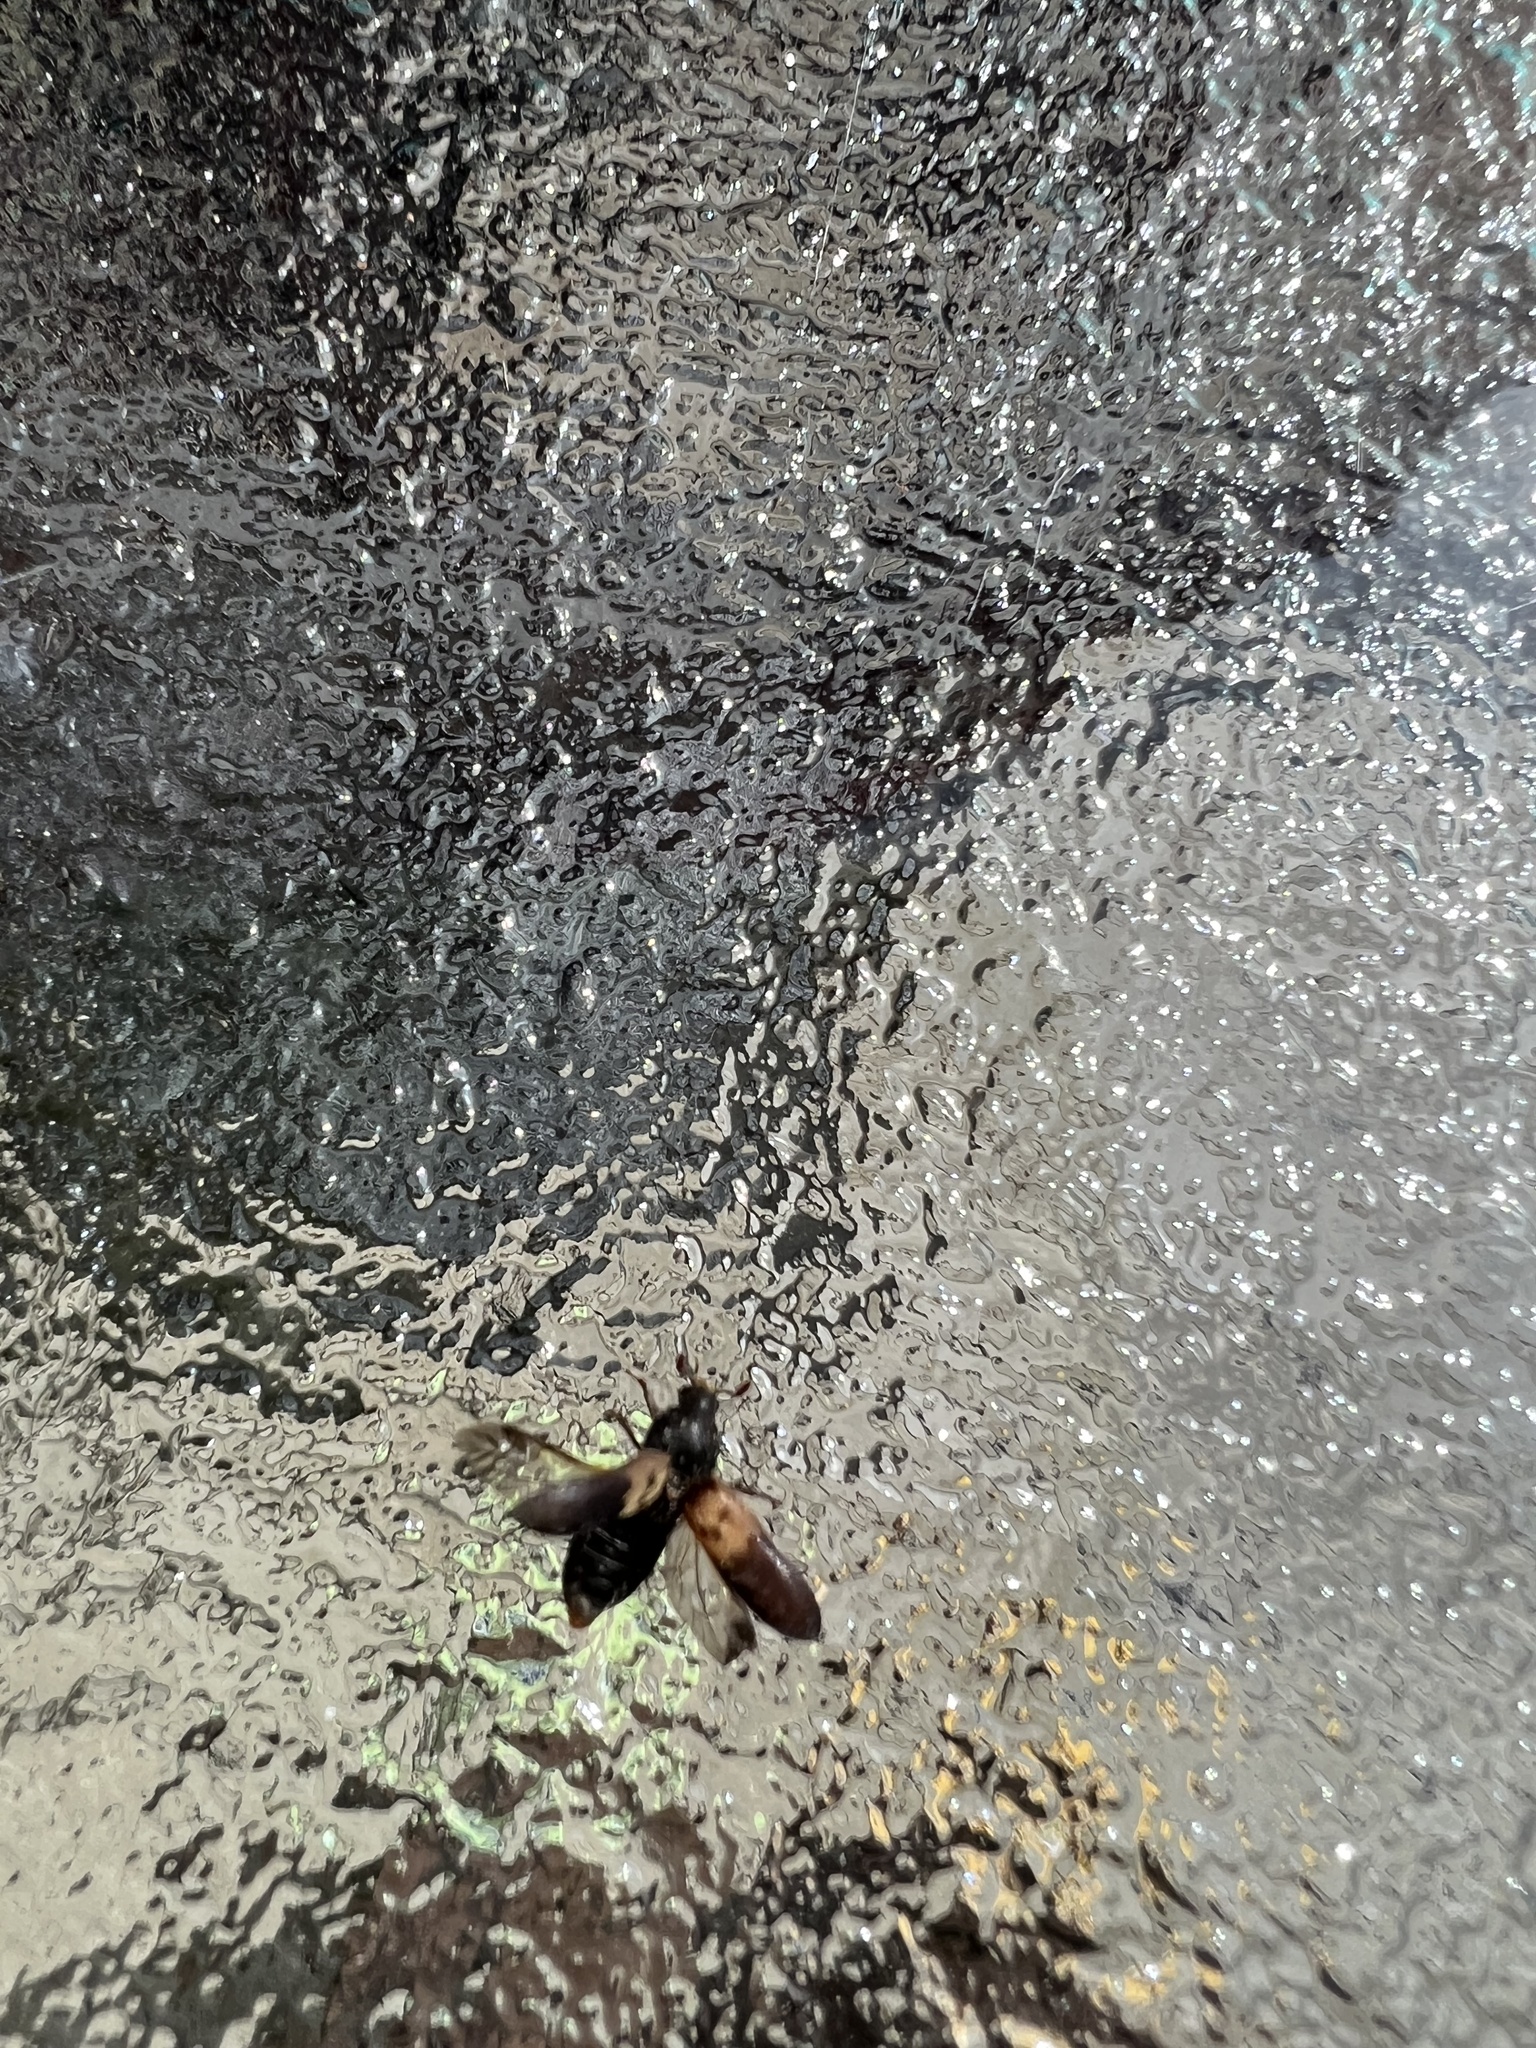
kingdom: Animalia
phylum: Arthropoda
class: Insecta
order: Coleoptera
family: Dermestidae
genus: Dermestes
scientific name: Dermestes lardarius
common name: Larder beetle
